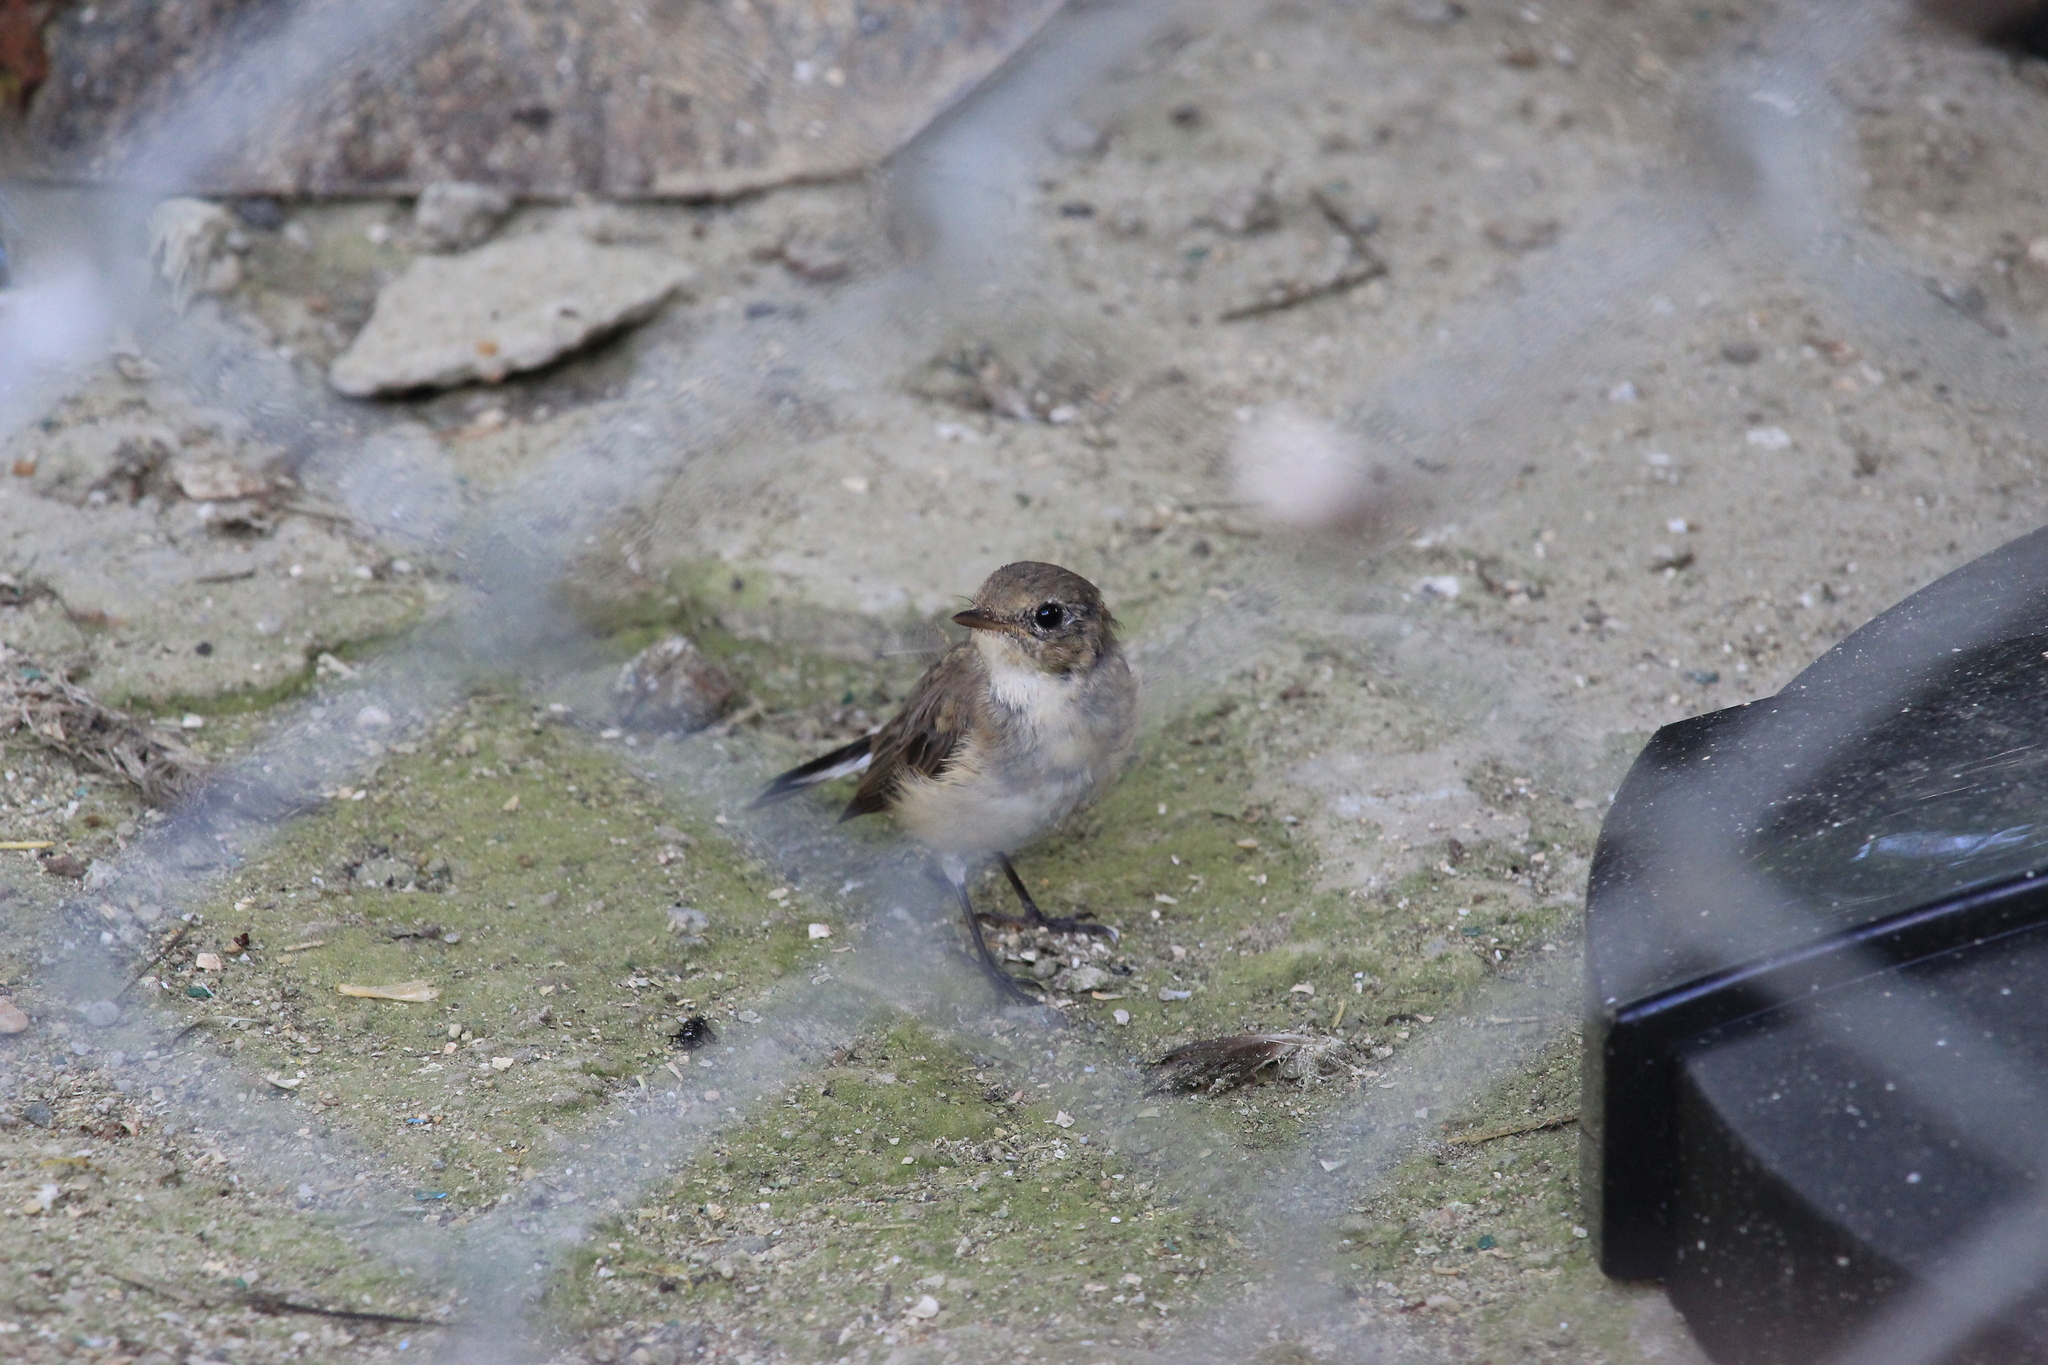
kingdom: Animalia
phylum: Chordata
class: Aves
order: Passeriformes
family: Muscicapidae
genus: Ficedula
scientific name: Ficedula parva
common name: Red-breasted flycatcher
